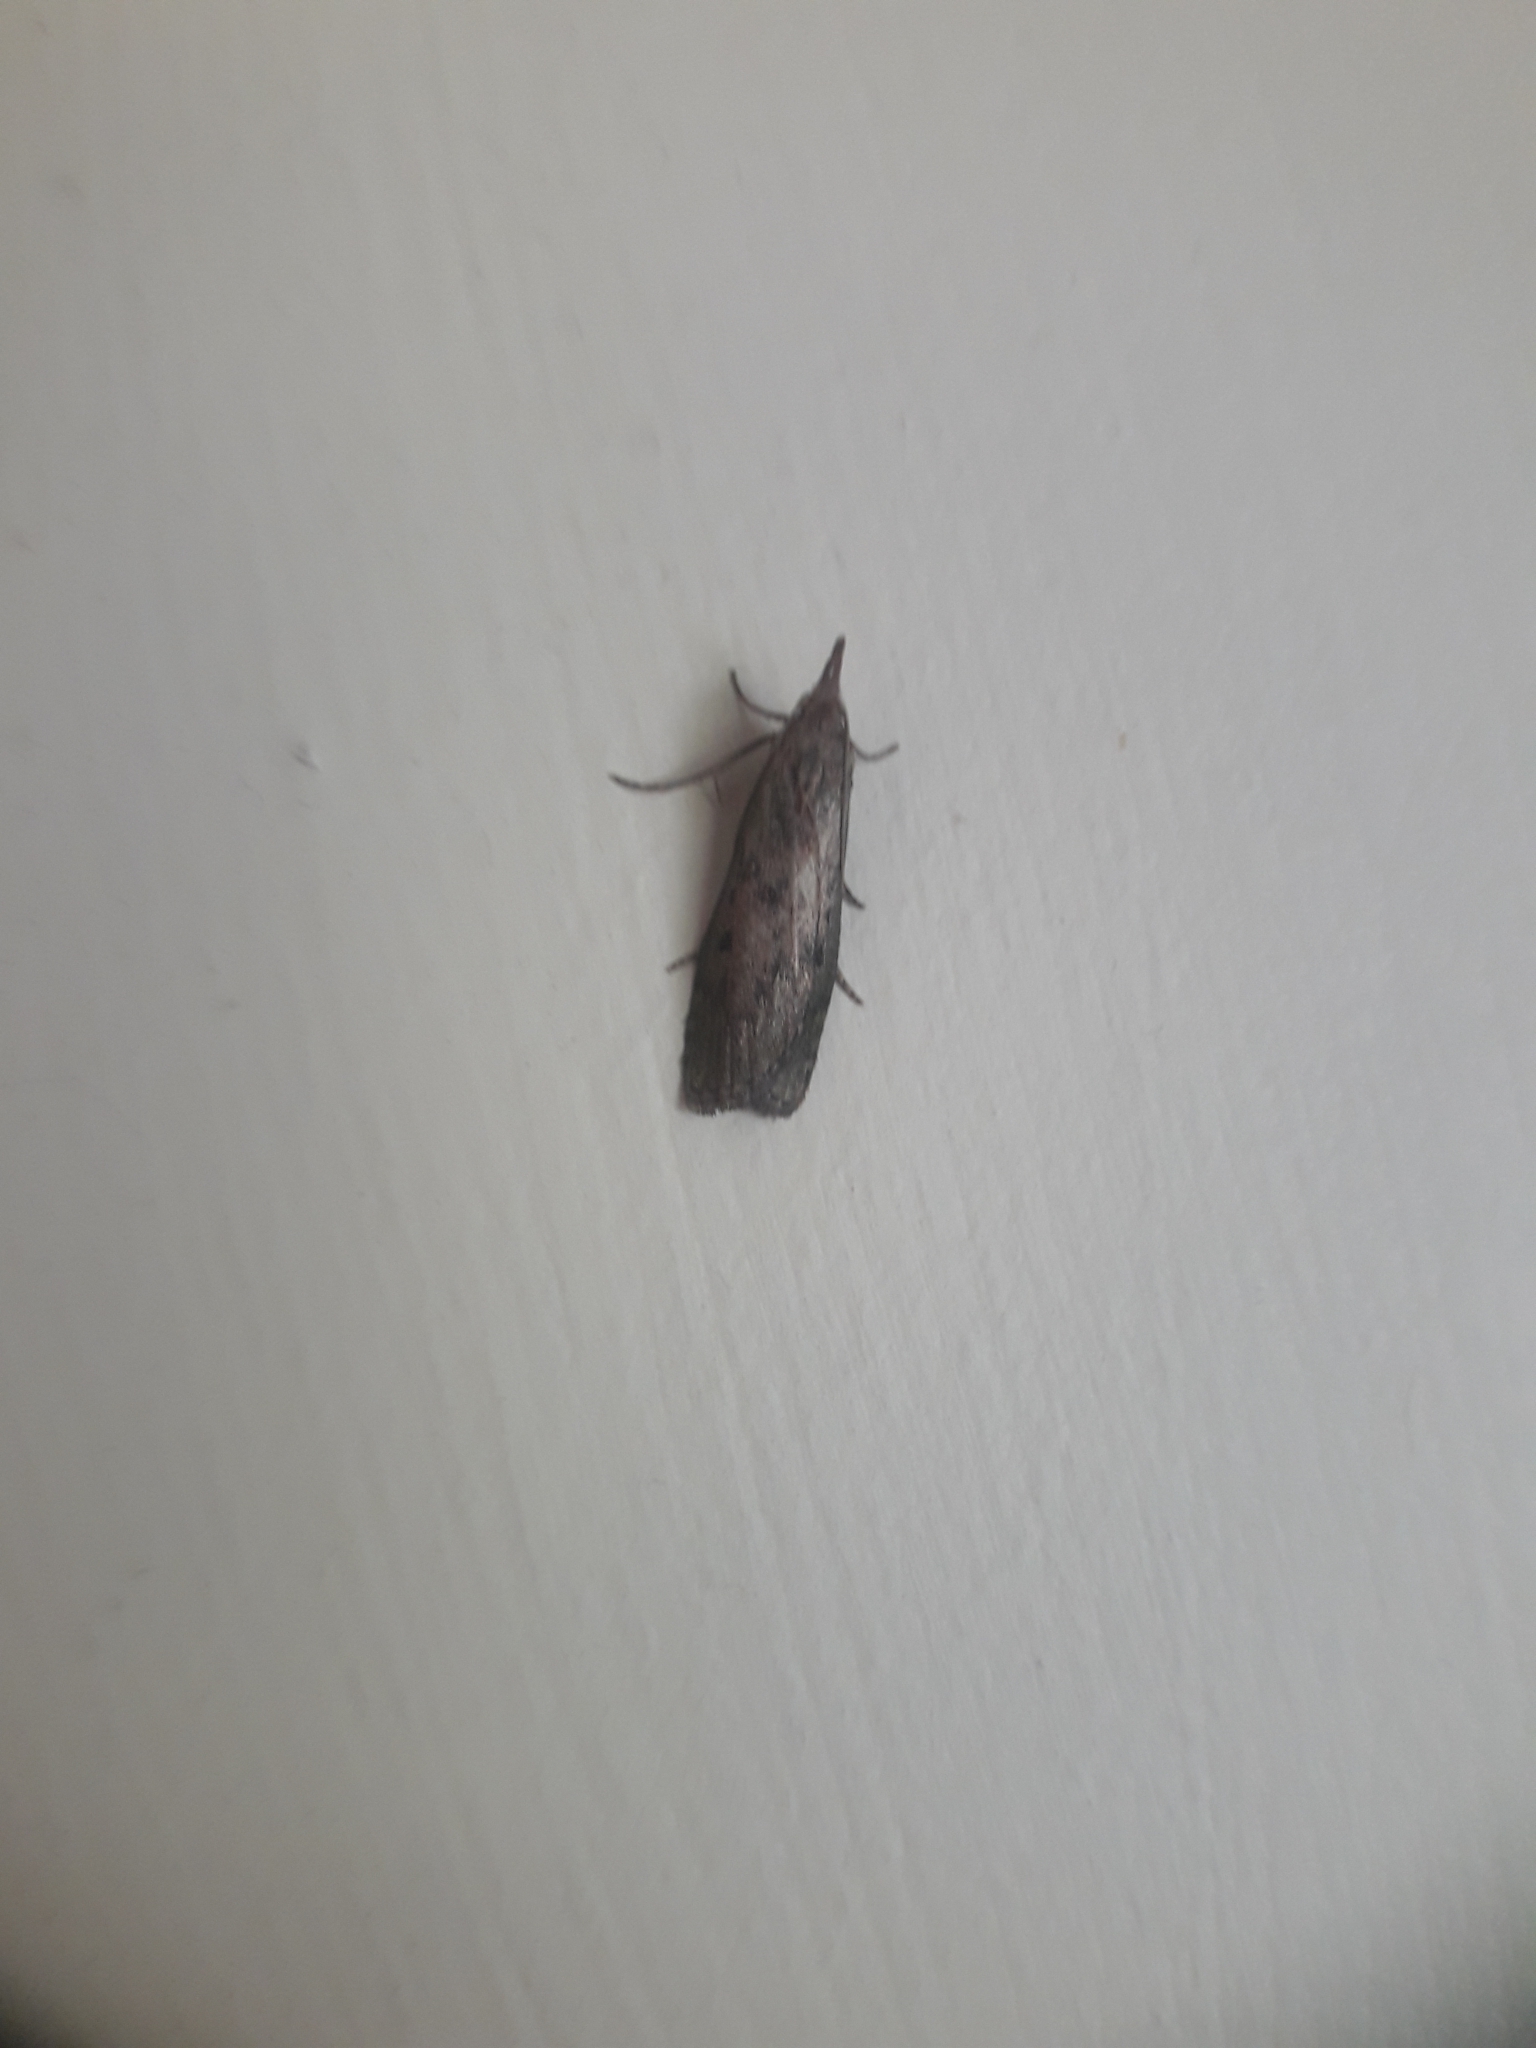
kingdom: Animalia
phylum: Arthropoda
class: Insecta
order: Lepidoptera
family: Pyralidae
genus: Aphomia
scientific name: Aphomia sociella
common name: Bee moth
